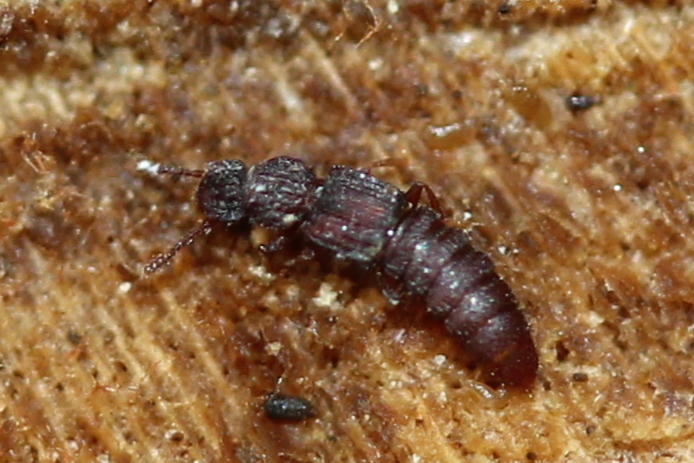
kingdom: Animalia
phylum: Arthropoda
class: Insecta
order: Coleoptera
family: Staphylinidae
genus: Thoracophorus
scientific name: Thoracophorus costalis
